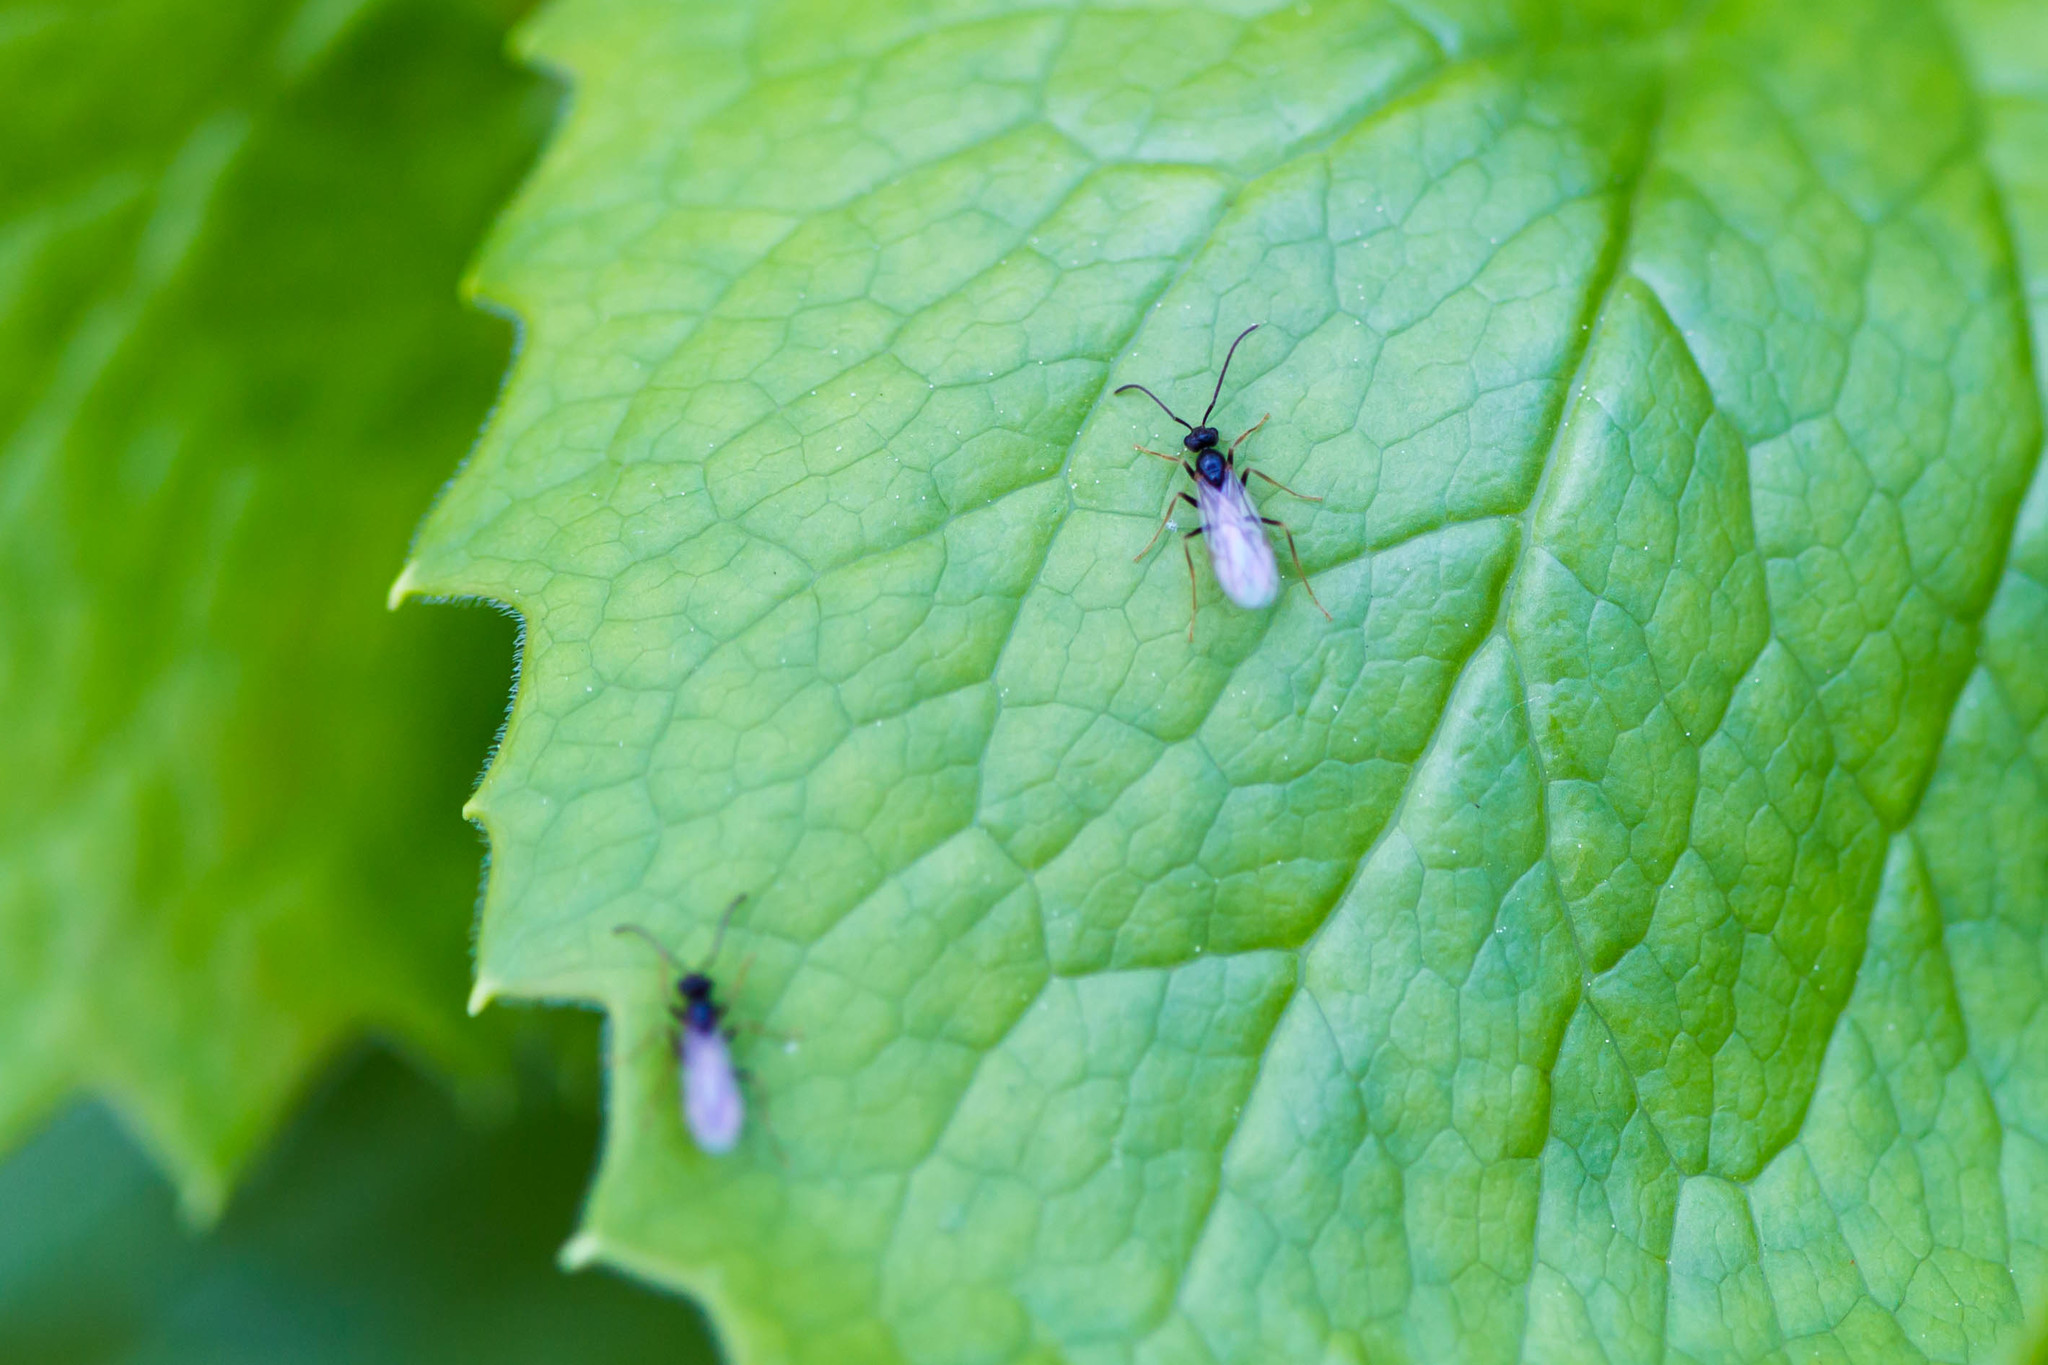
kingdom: Animalia
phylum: Arthropoda
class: Insecta
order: Hymenoptera
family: Formicidae
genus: Prenolepis
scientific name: Prenolepis imparis
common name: Small honey ant
